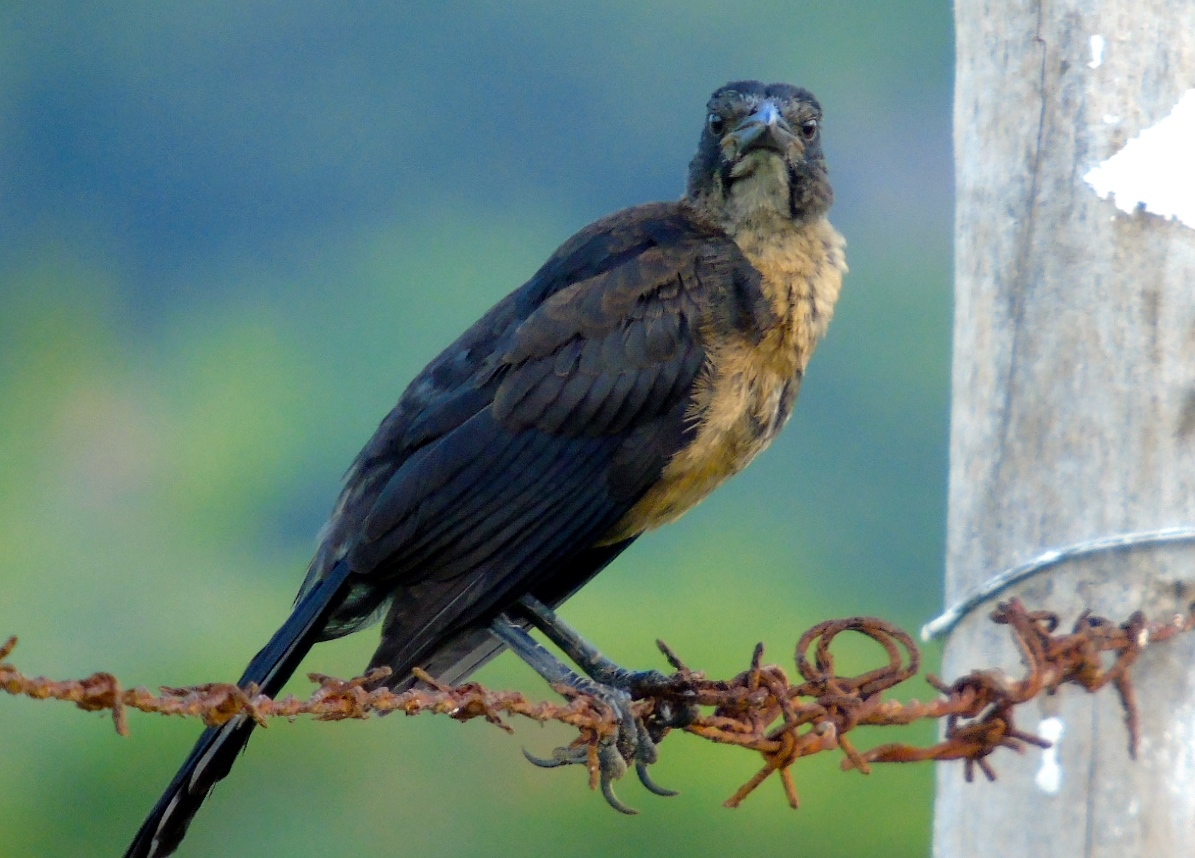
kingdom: Animalia
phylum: Chordata
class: Aves
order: Passeriformes
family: Icteridae
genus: Quiscalus
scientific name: Quiscalus mexicanus
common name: Great-tailed grackle
